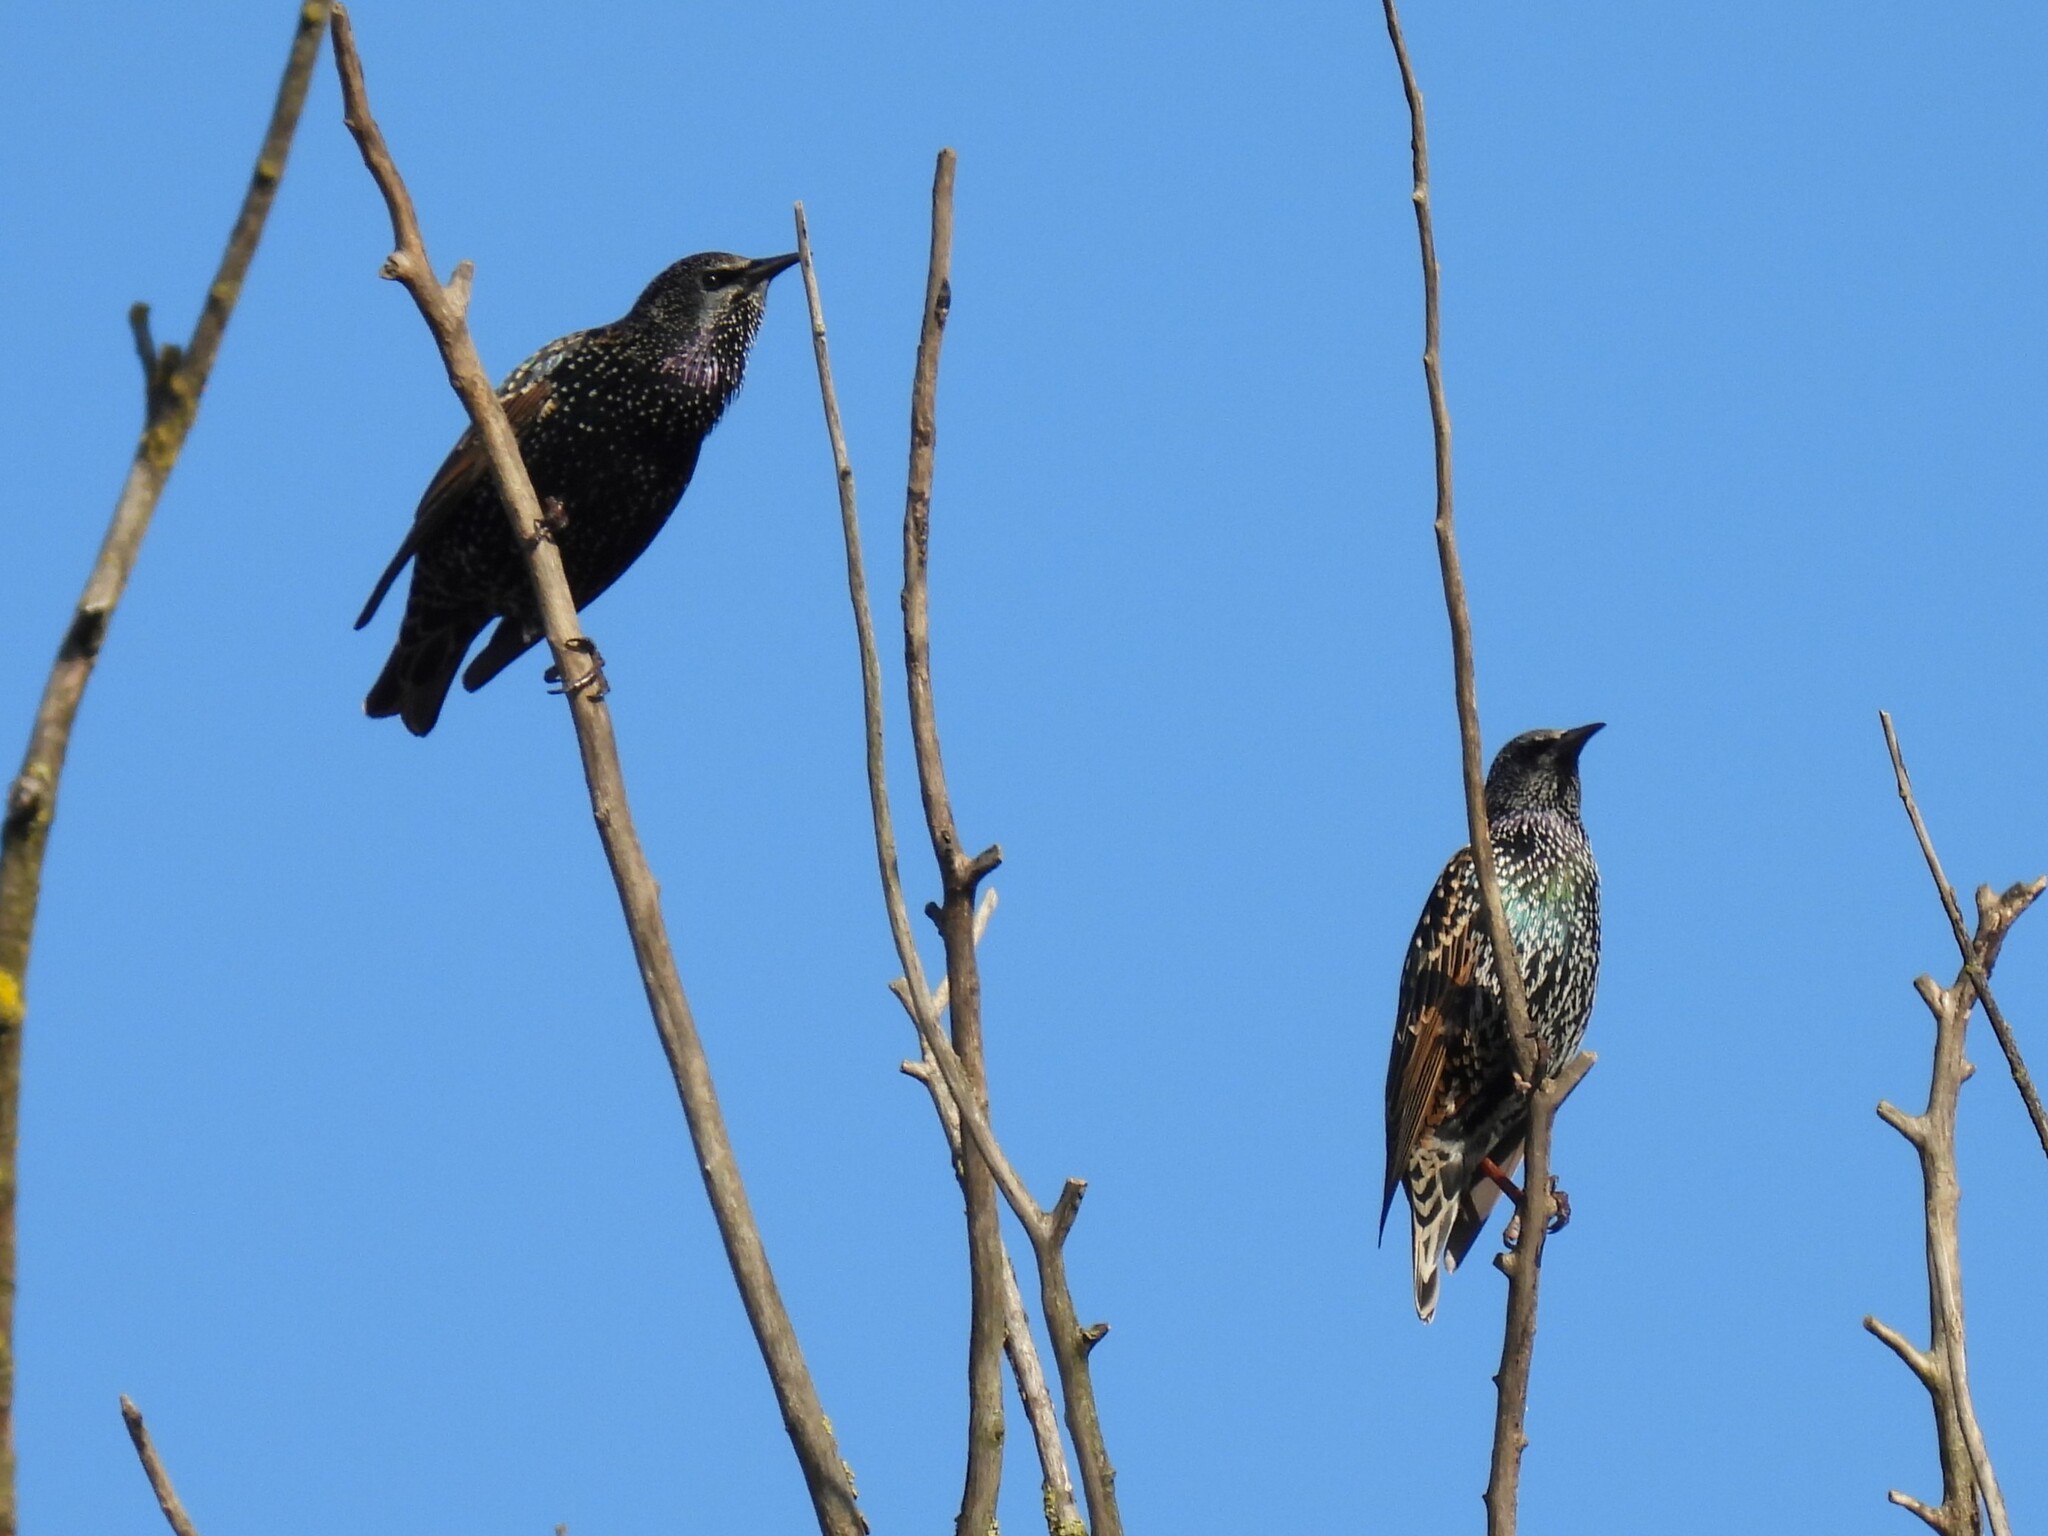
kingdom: Animalia
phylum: Chordata
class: Aves
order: Passeriformes
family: Sturnidae
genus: Sturnus
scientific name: Sturnus vulgaris
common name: Common starling
